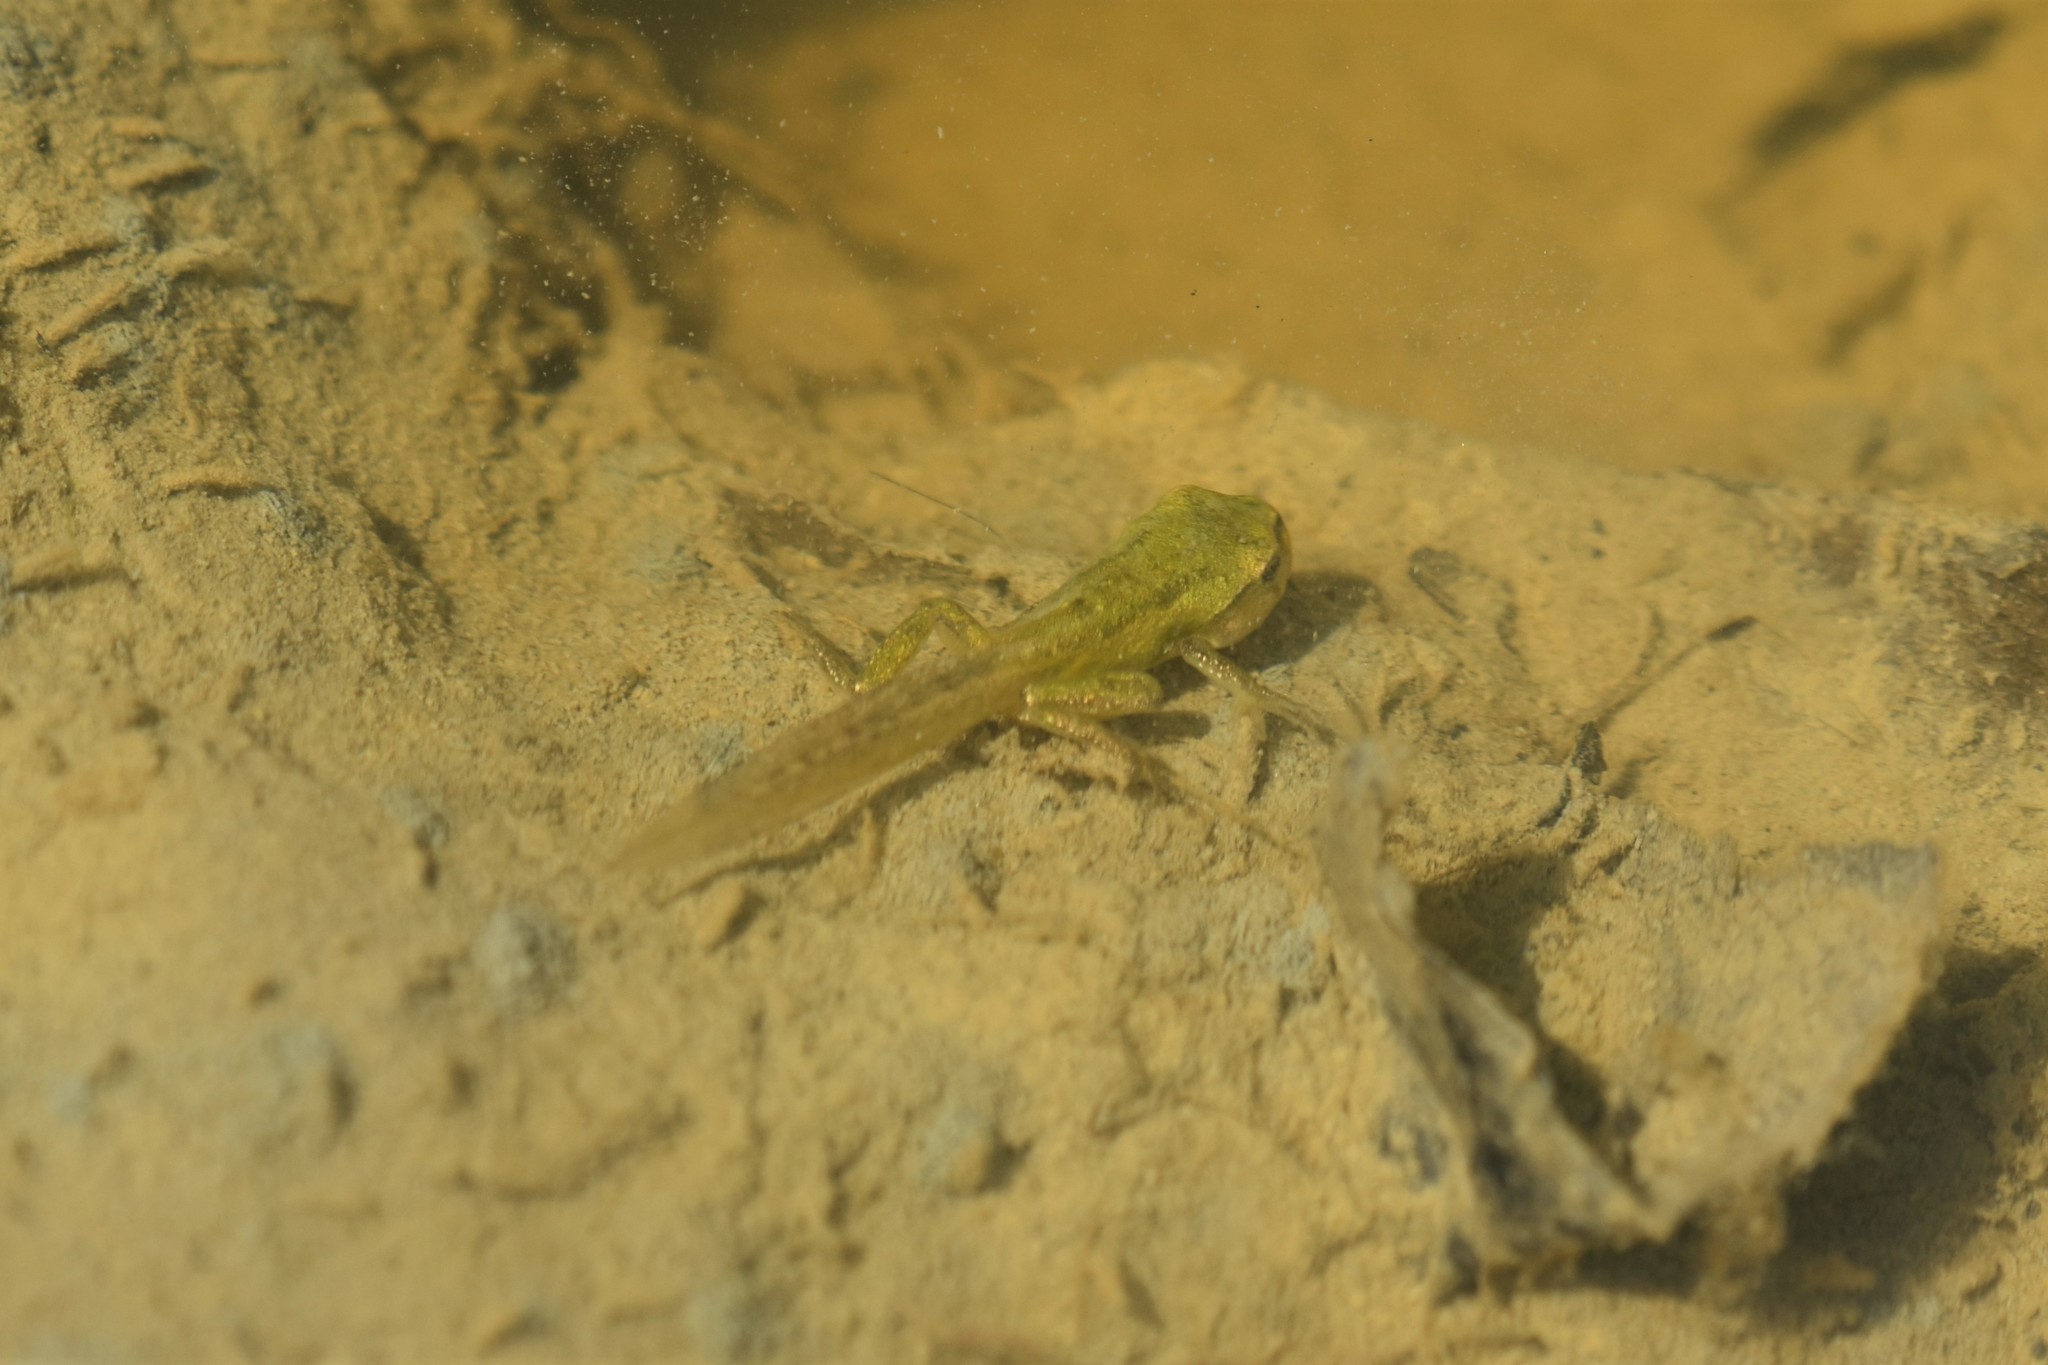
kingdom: Animalia
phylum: Chordata
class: Amphibia
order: Anura
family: Hylidae
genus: Pseudacris
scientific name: Pseudacris regilla
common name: Pacific chorus frog
